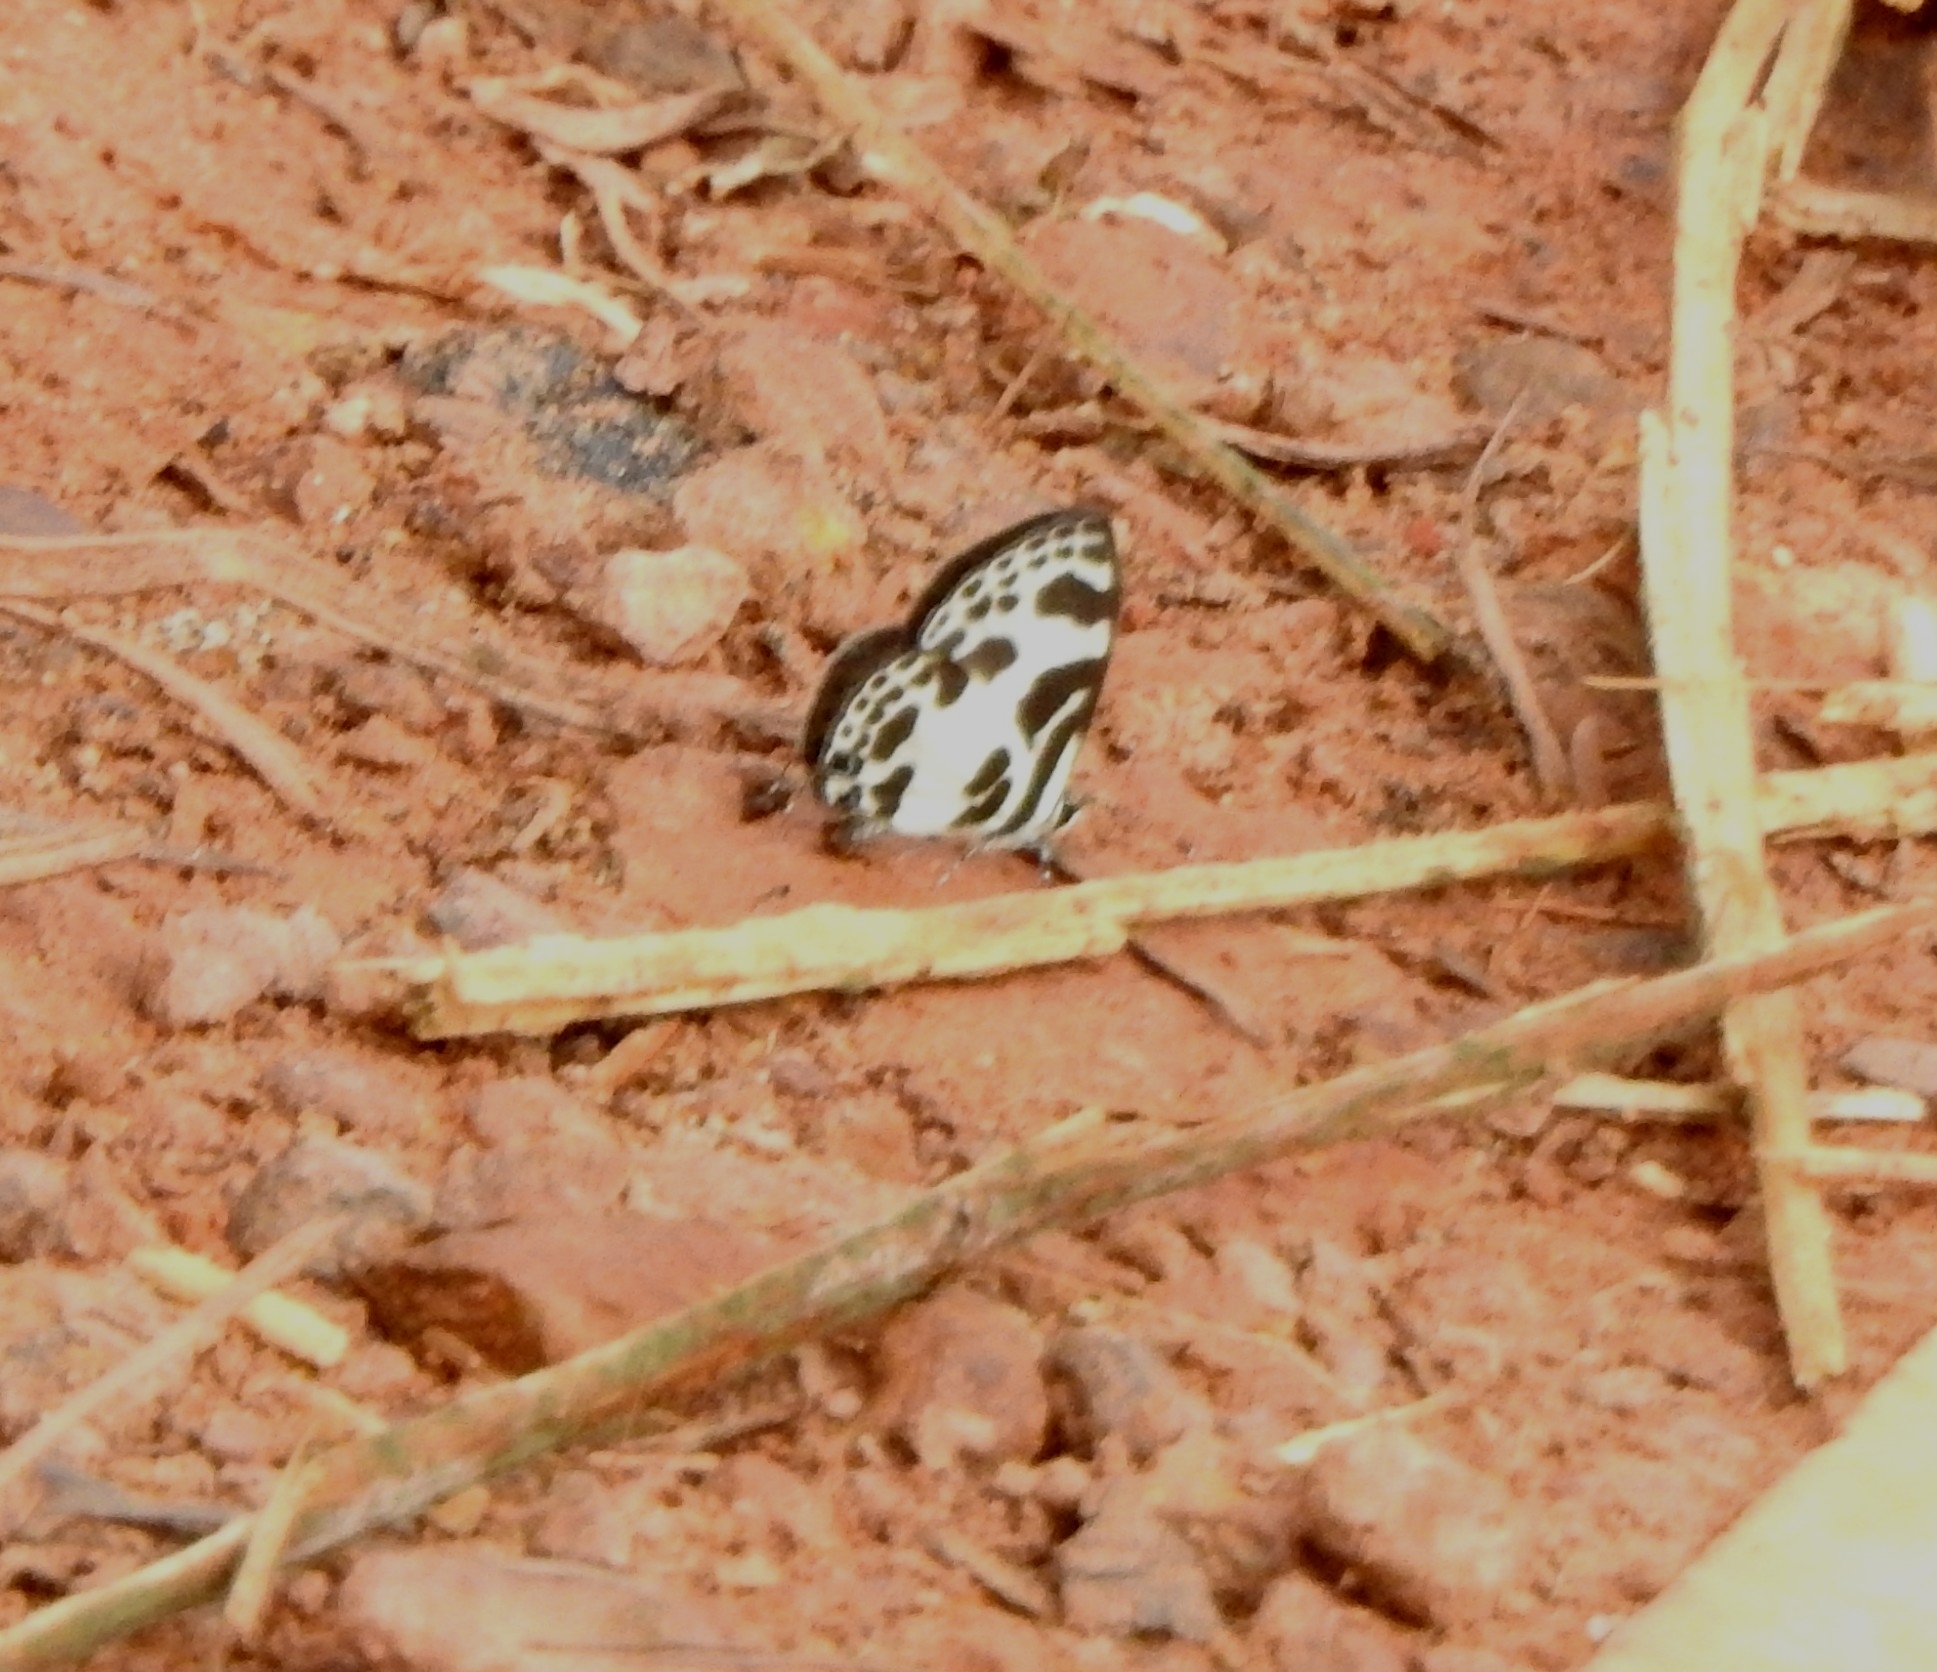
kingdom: Animalia
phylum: Arthropoda
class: Insecta
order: Lepidoptera
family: Lycaenidae
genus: Discolampa
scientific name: Discolampa ethion
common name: Banded blue pierrot
